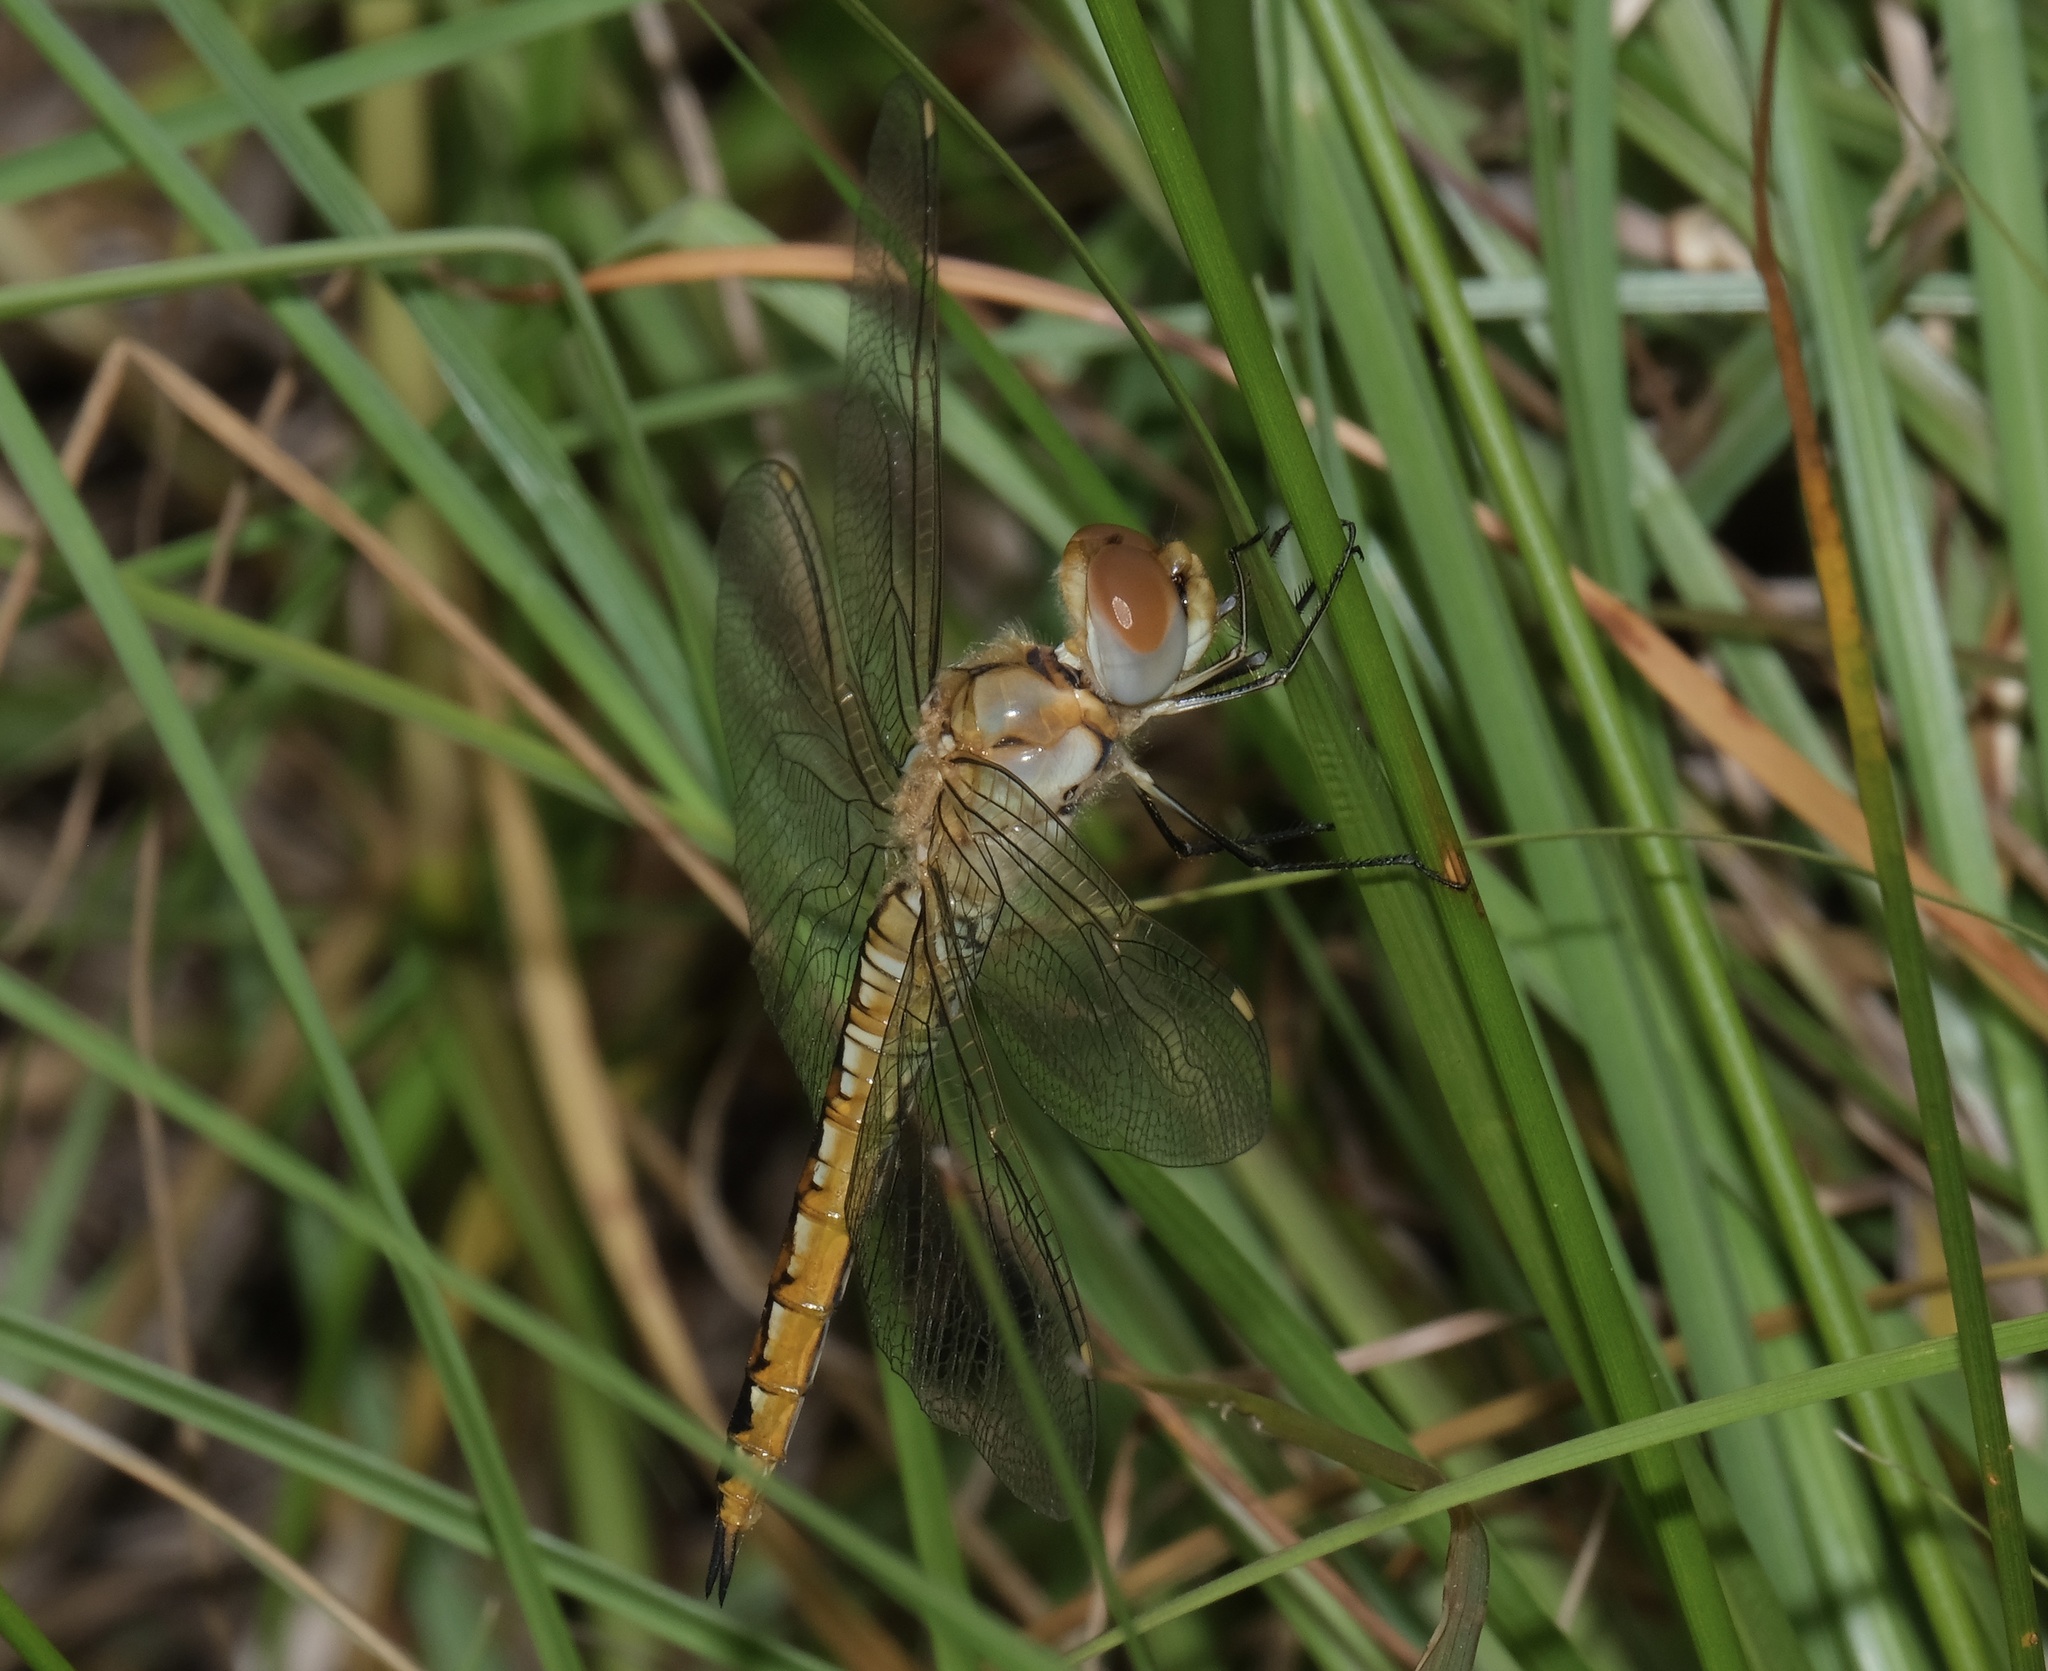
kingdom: Animalia
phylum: Arthropoda
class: Insecta
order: Odonata
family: Libellulidae
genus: Pantala
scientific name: Pantala flavescens
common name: Wandering glider
